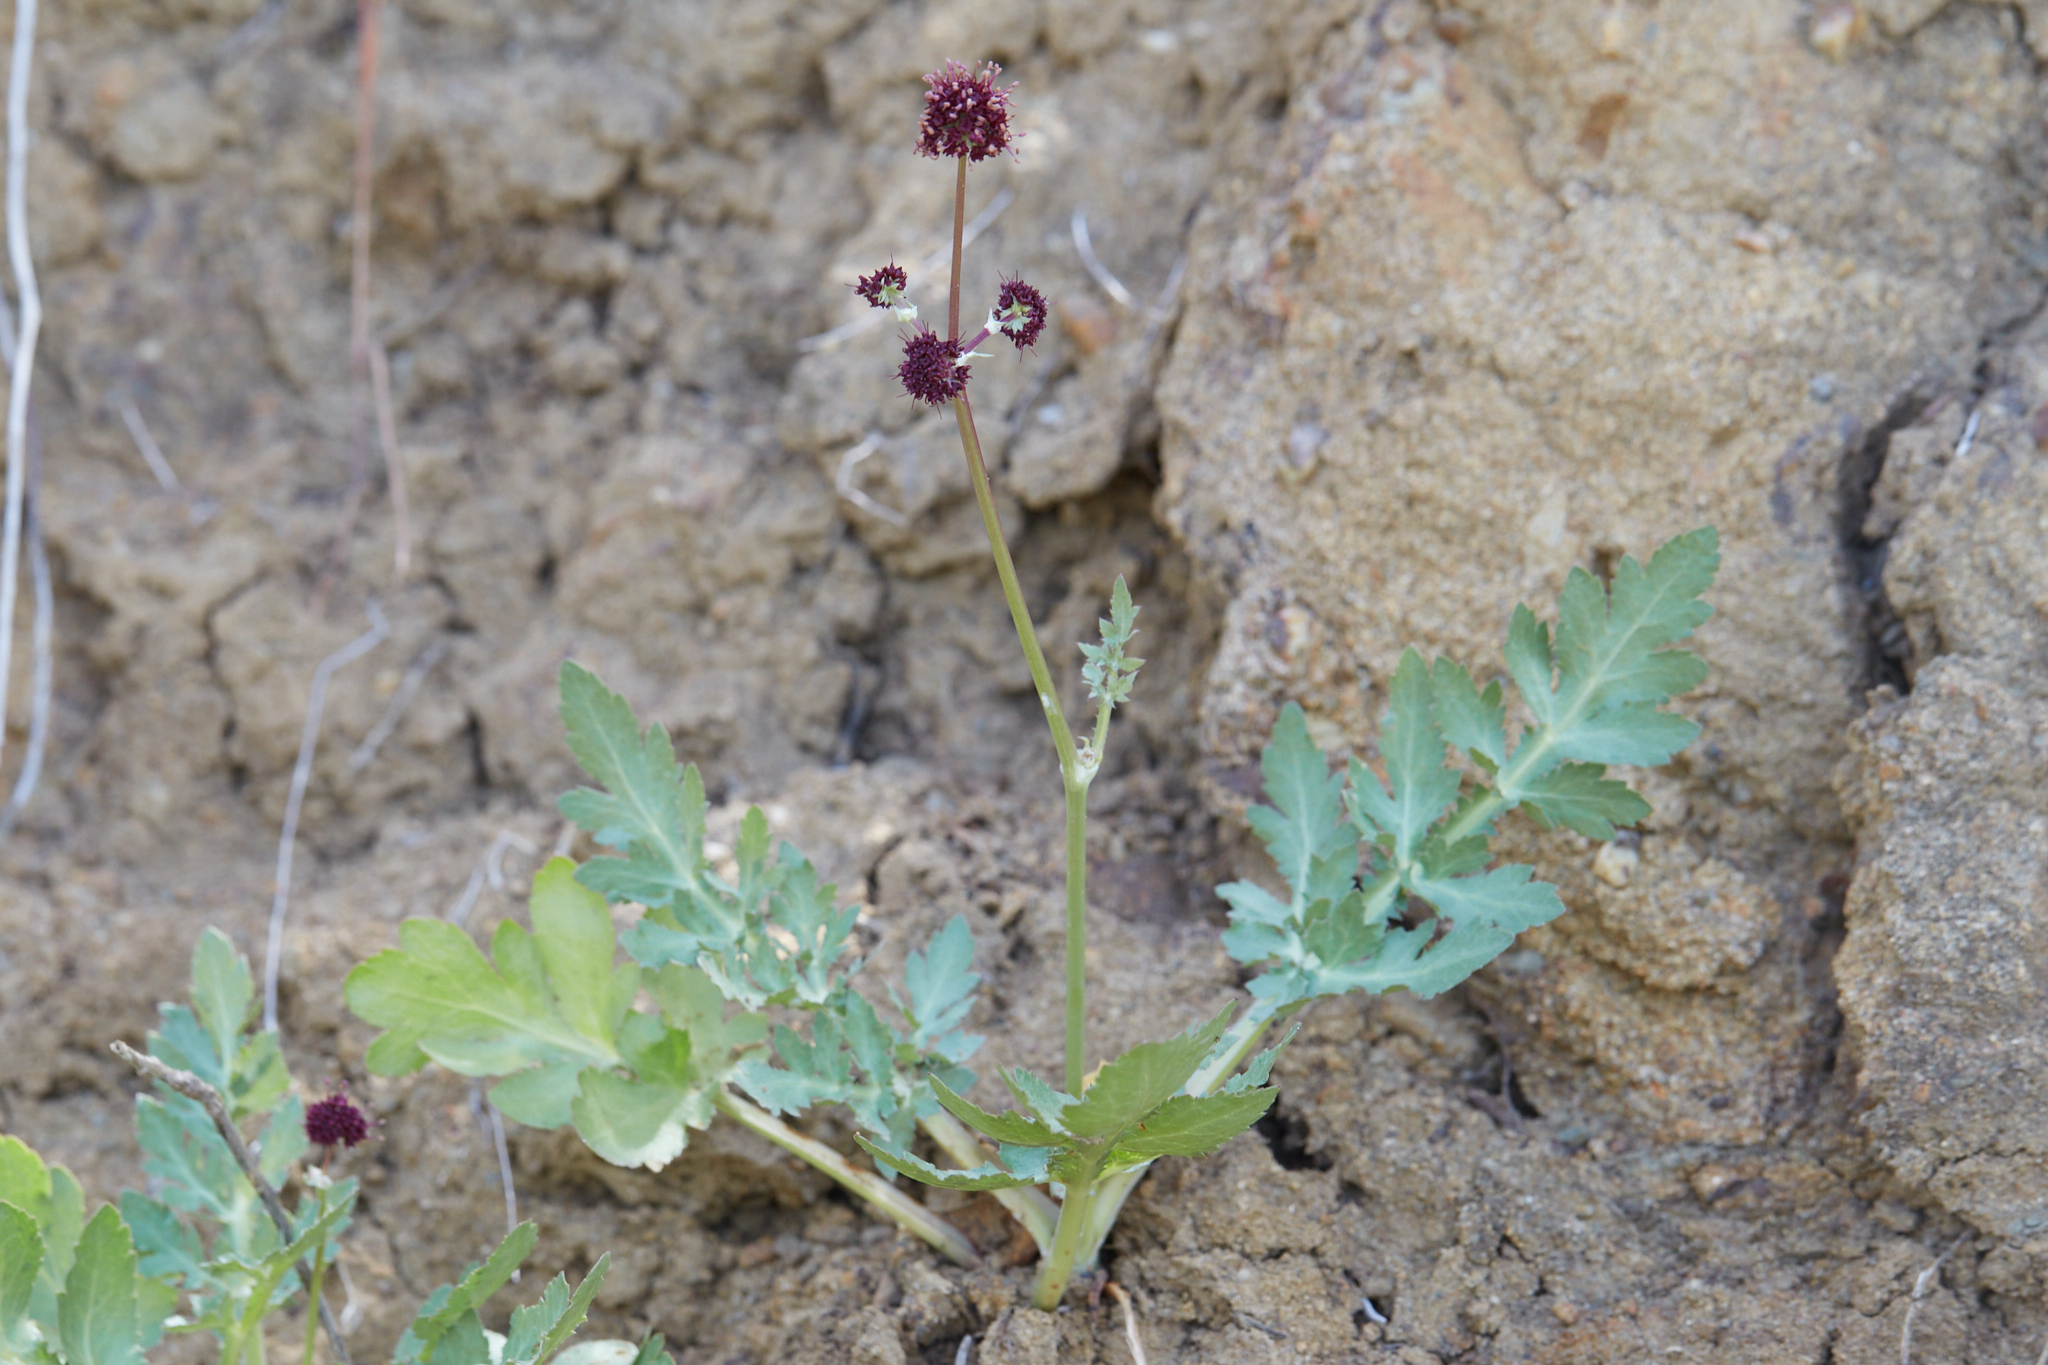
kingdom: Plantae
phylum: Tracheophyta
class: Magnoliopsida
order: Apiales
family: Apiaceae
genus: Sanicula
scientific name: Sanicula bipinnatifida
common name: Shoe-buttons
